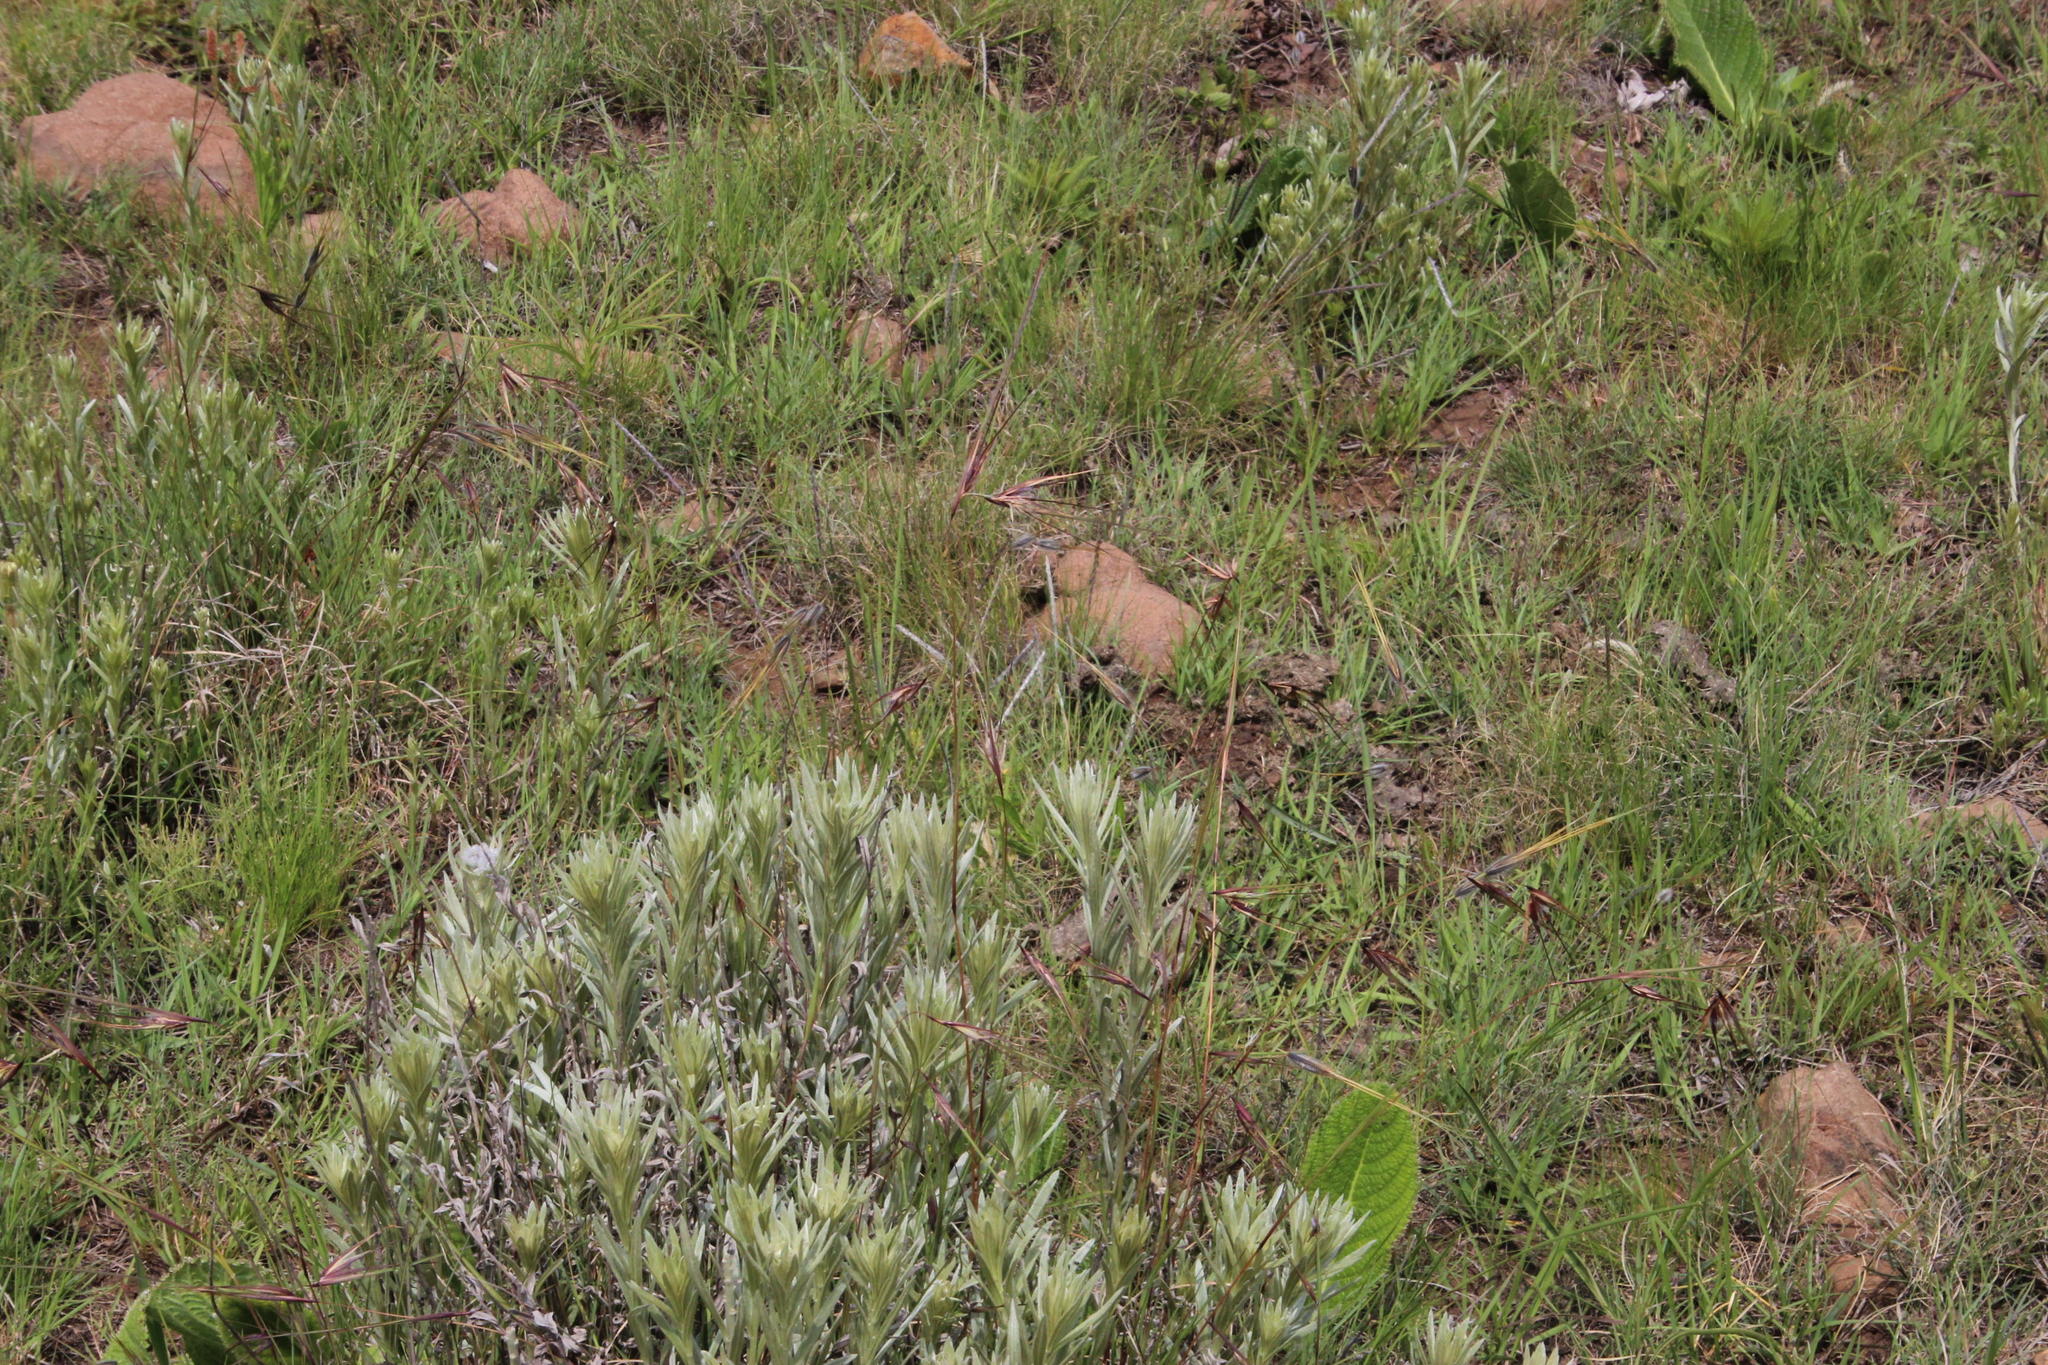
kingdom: Plantae
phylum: Tracheophyta
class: Liliopsida
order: Poales
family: Poaceae
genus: Themeda
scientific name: Themeda triandra
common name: Kangaroo grass
